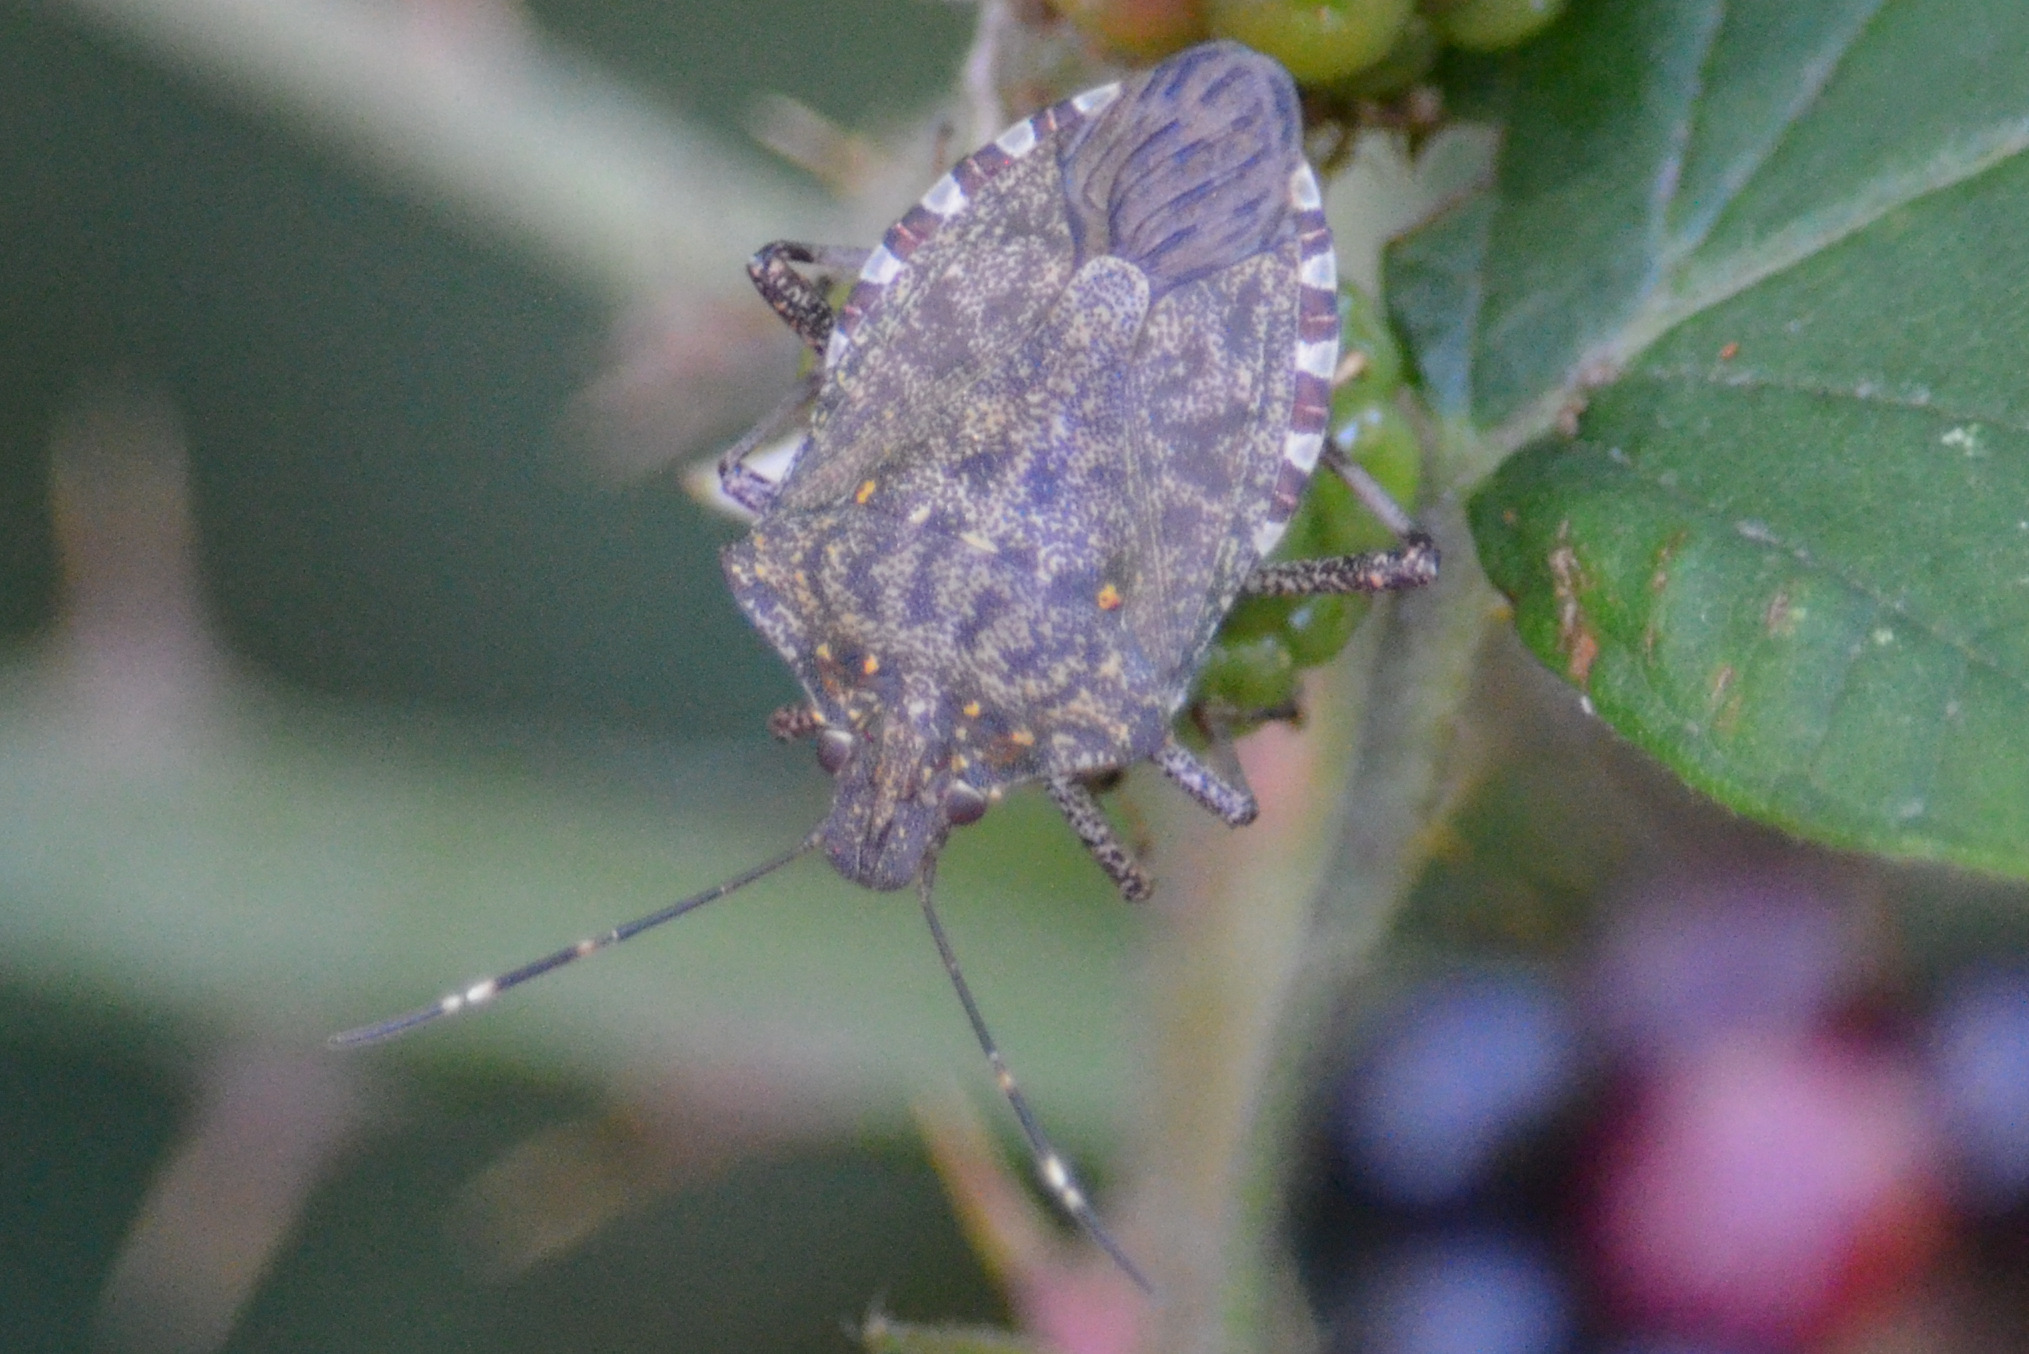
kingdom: Animalia
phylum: Arthropoda
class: Insecta
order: Hemiptera
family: Pentatomidae
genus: Halyomorpha
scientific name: Halyomorpha halys
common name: Brown marmorated stink bug
